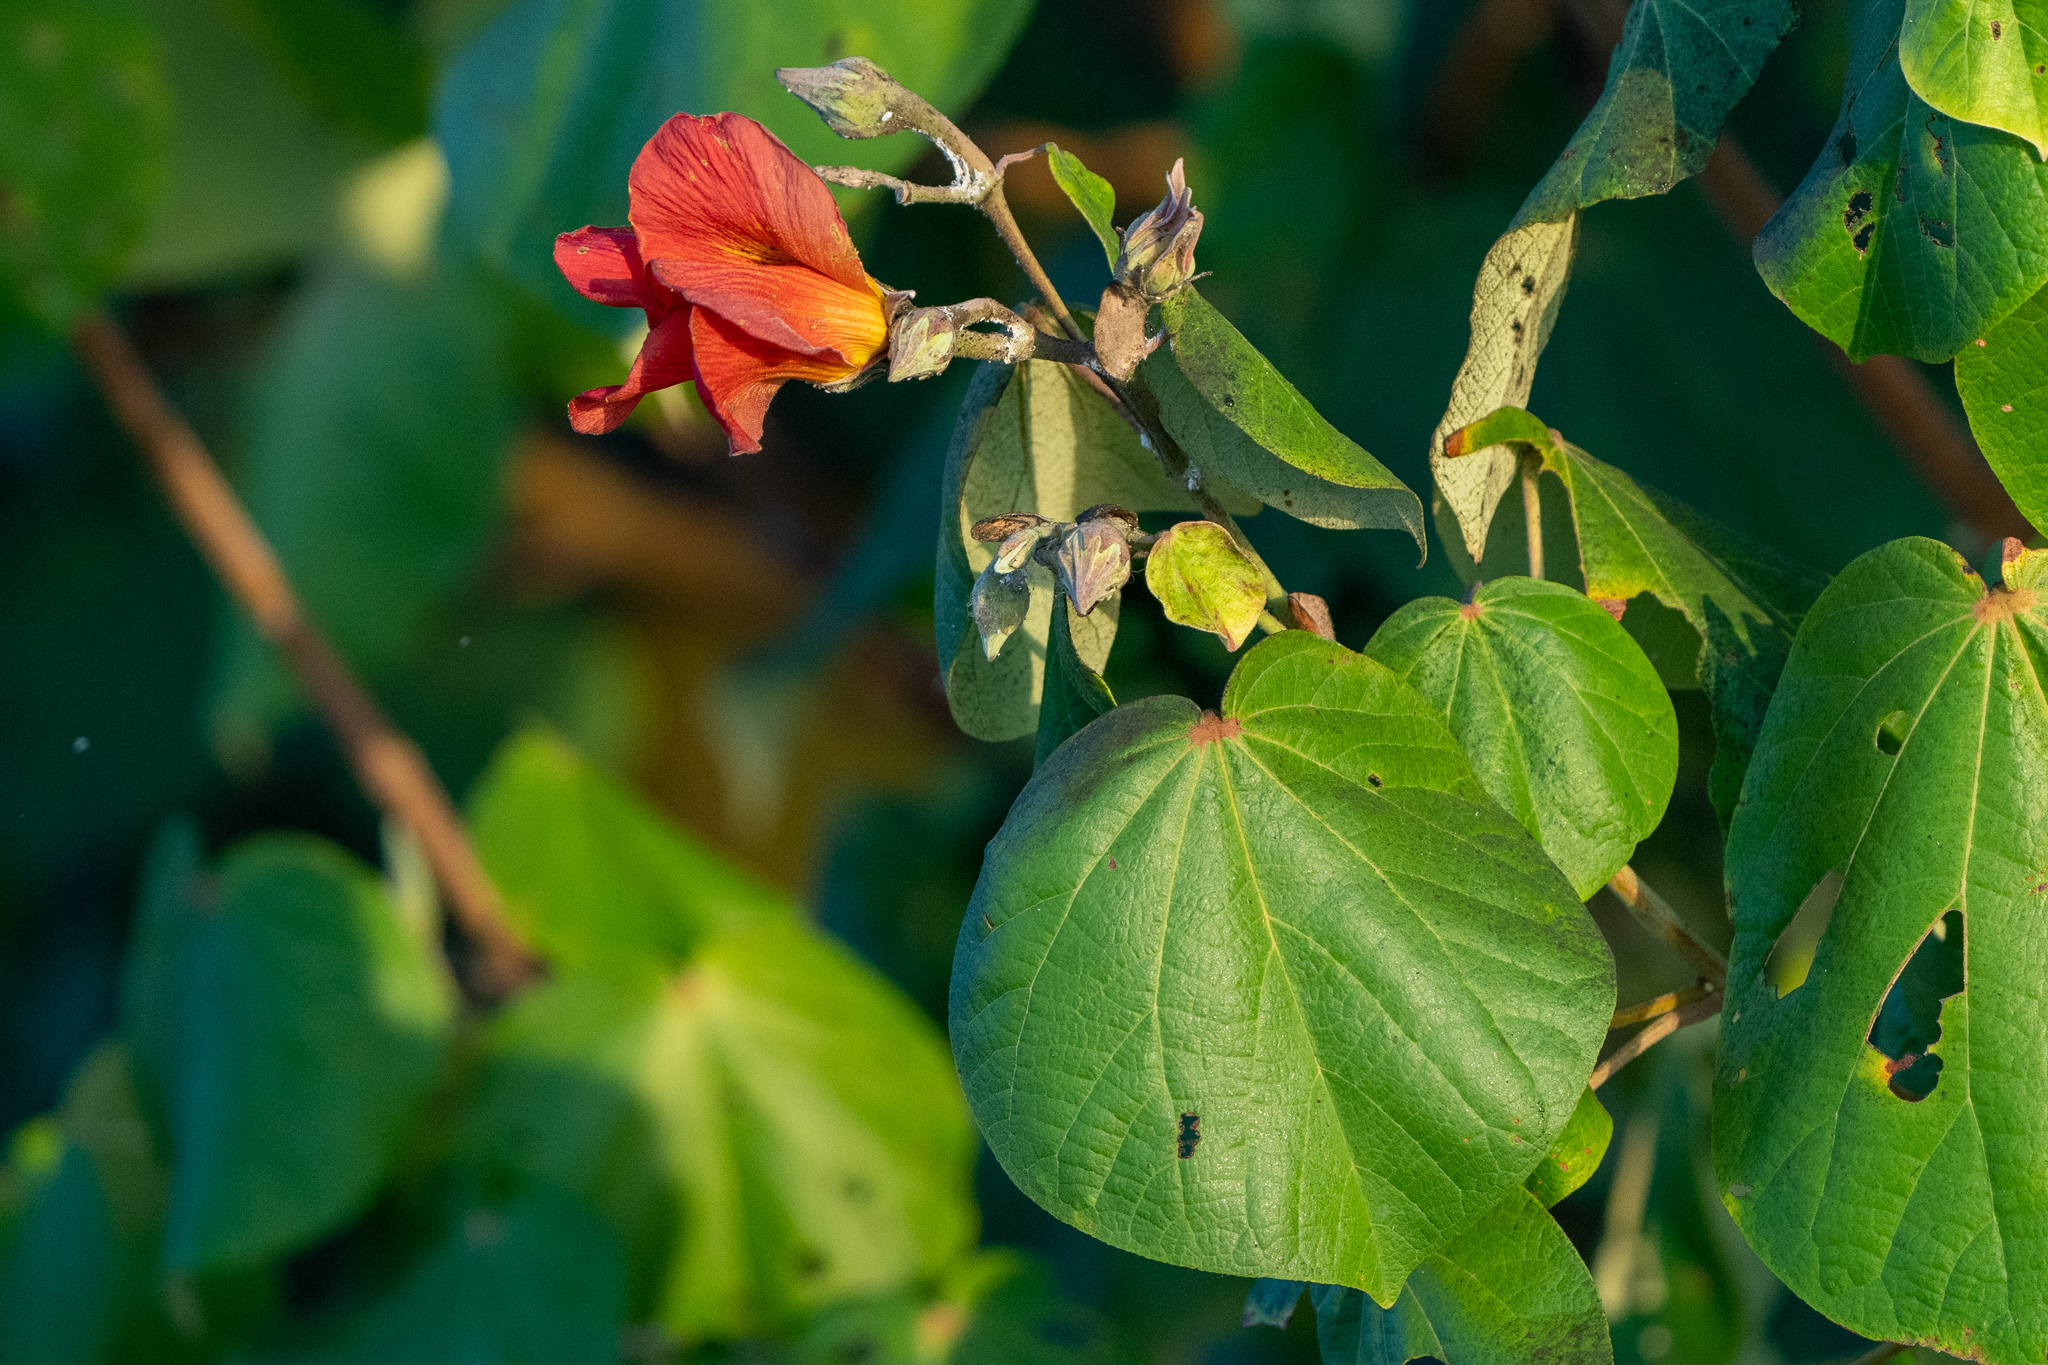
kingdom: Plantae
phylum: Tracheophyta
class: Magnoliopsida
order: Malvales
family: Malvaceae
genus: Talipariti
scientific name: Talipariti tiliaceum
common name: Sea hibiscus
